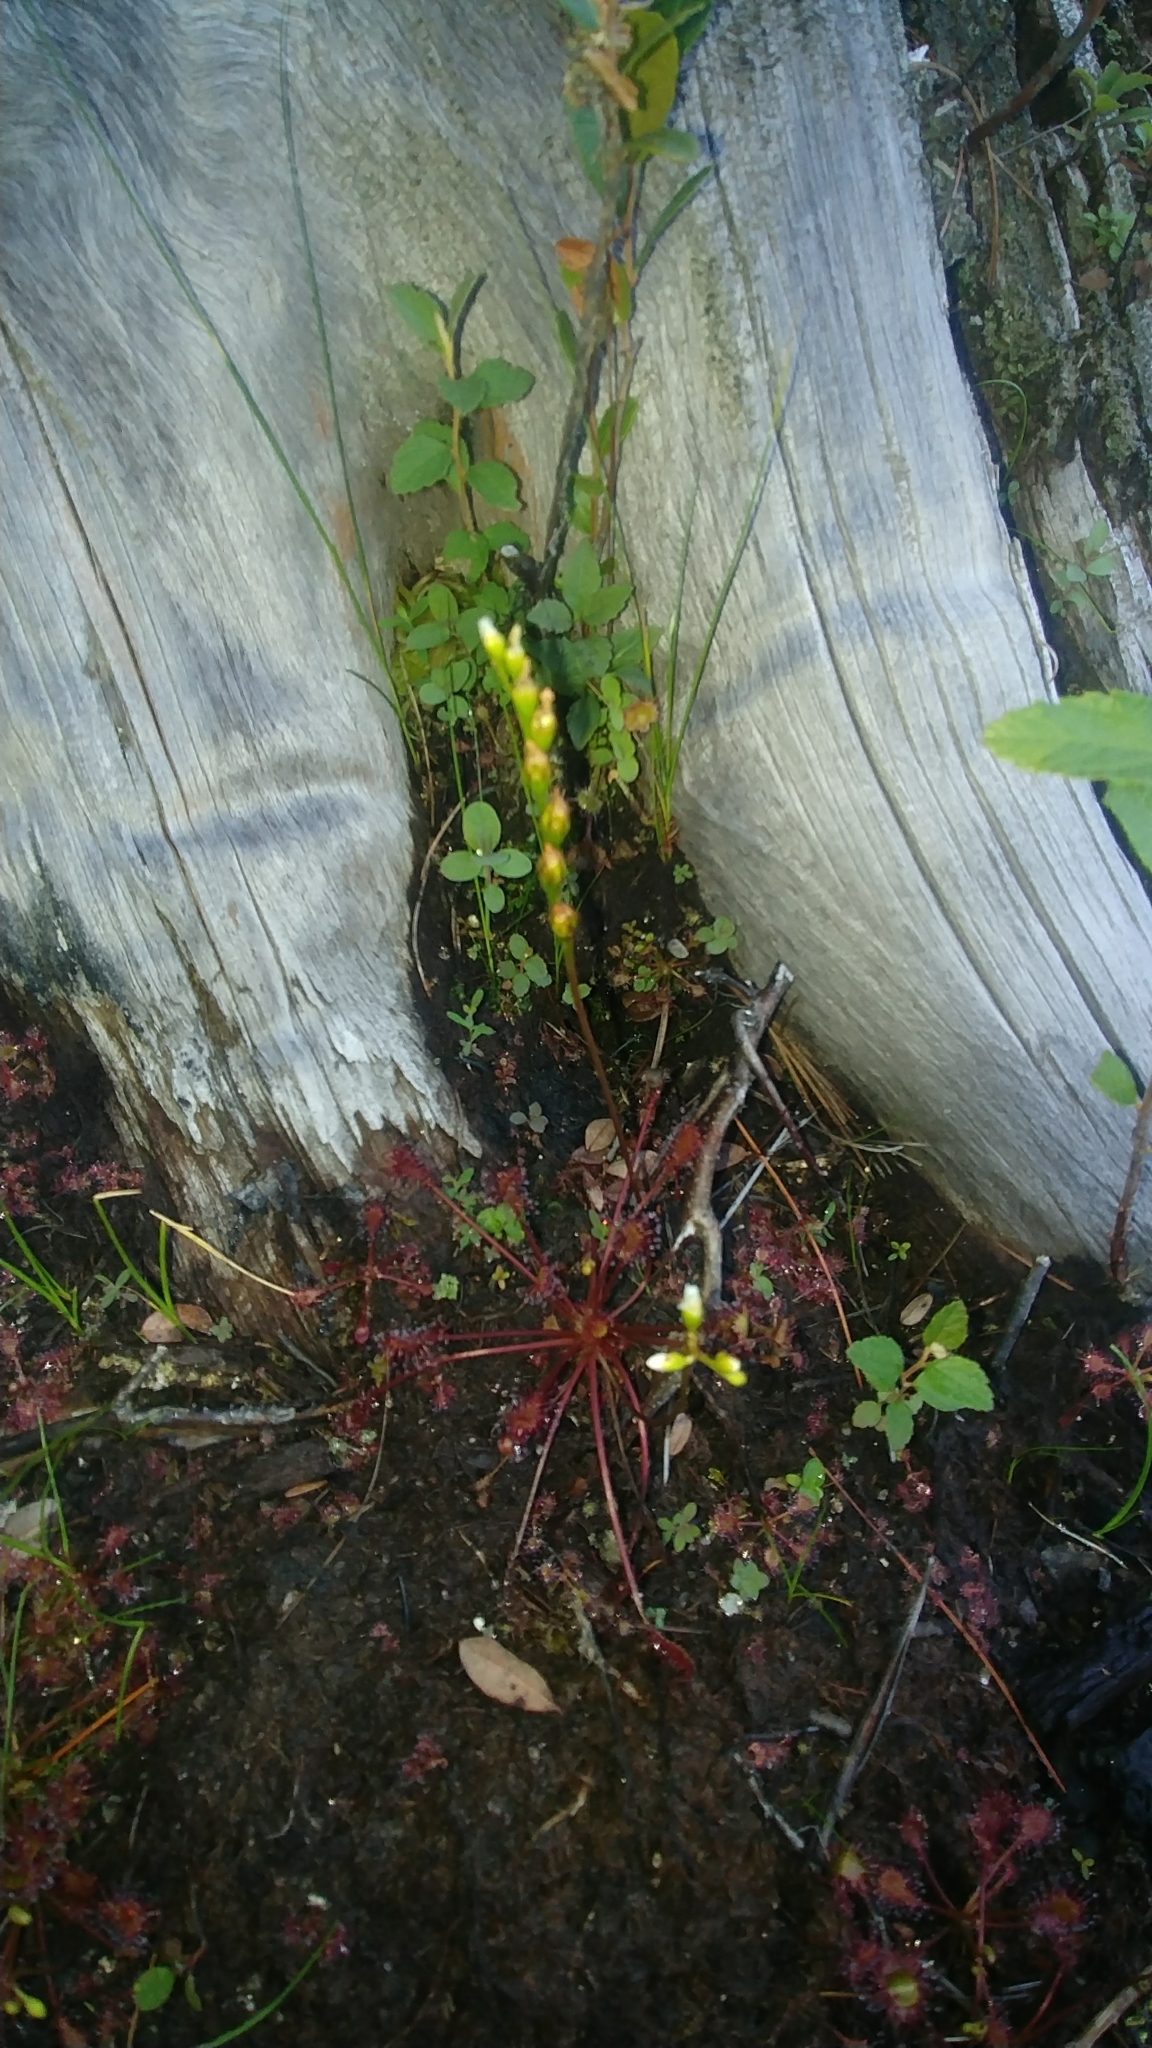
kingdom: Plantae
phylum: Tracheophyta
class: Magnoliopsida
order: Caryophyllales
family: Droseraceae
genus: Drosera
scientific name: Drosera intermedia
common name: Oblong-leaved sundew
